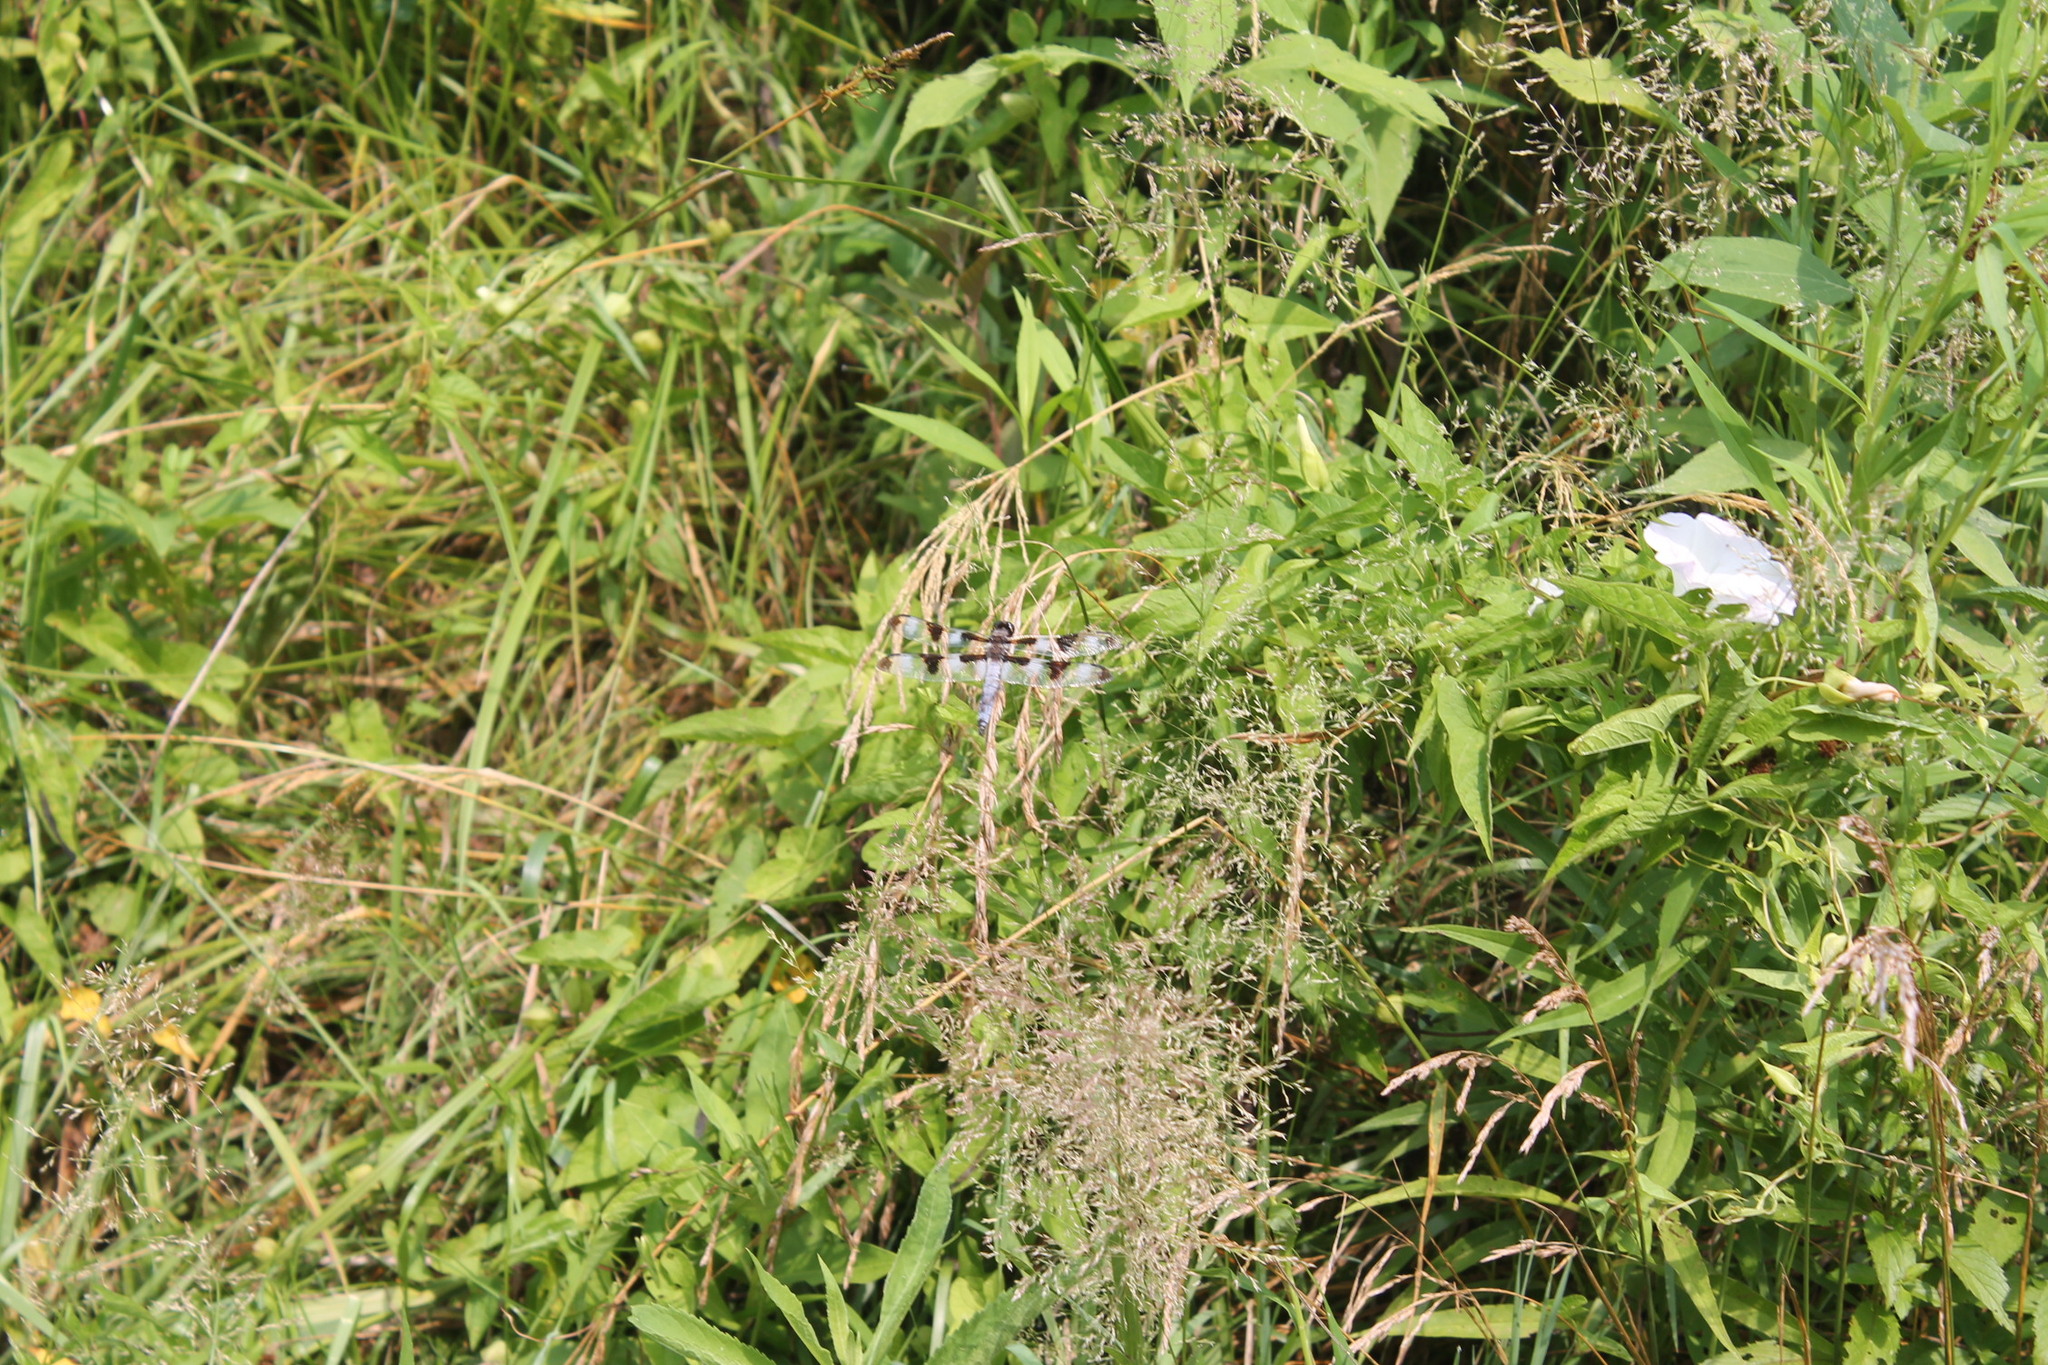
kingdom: Animalia
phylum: Arthropoda
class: Insecta
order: Odonata
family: Libellulidae
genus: Libellula
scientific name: Libellula pulchella
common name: Twelve-spotted skimmer
